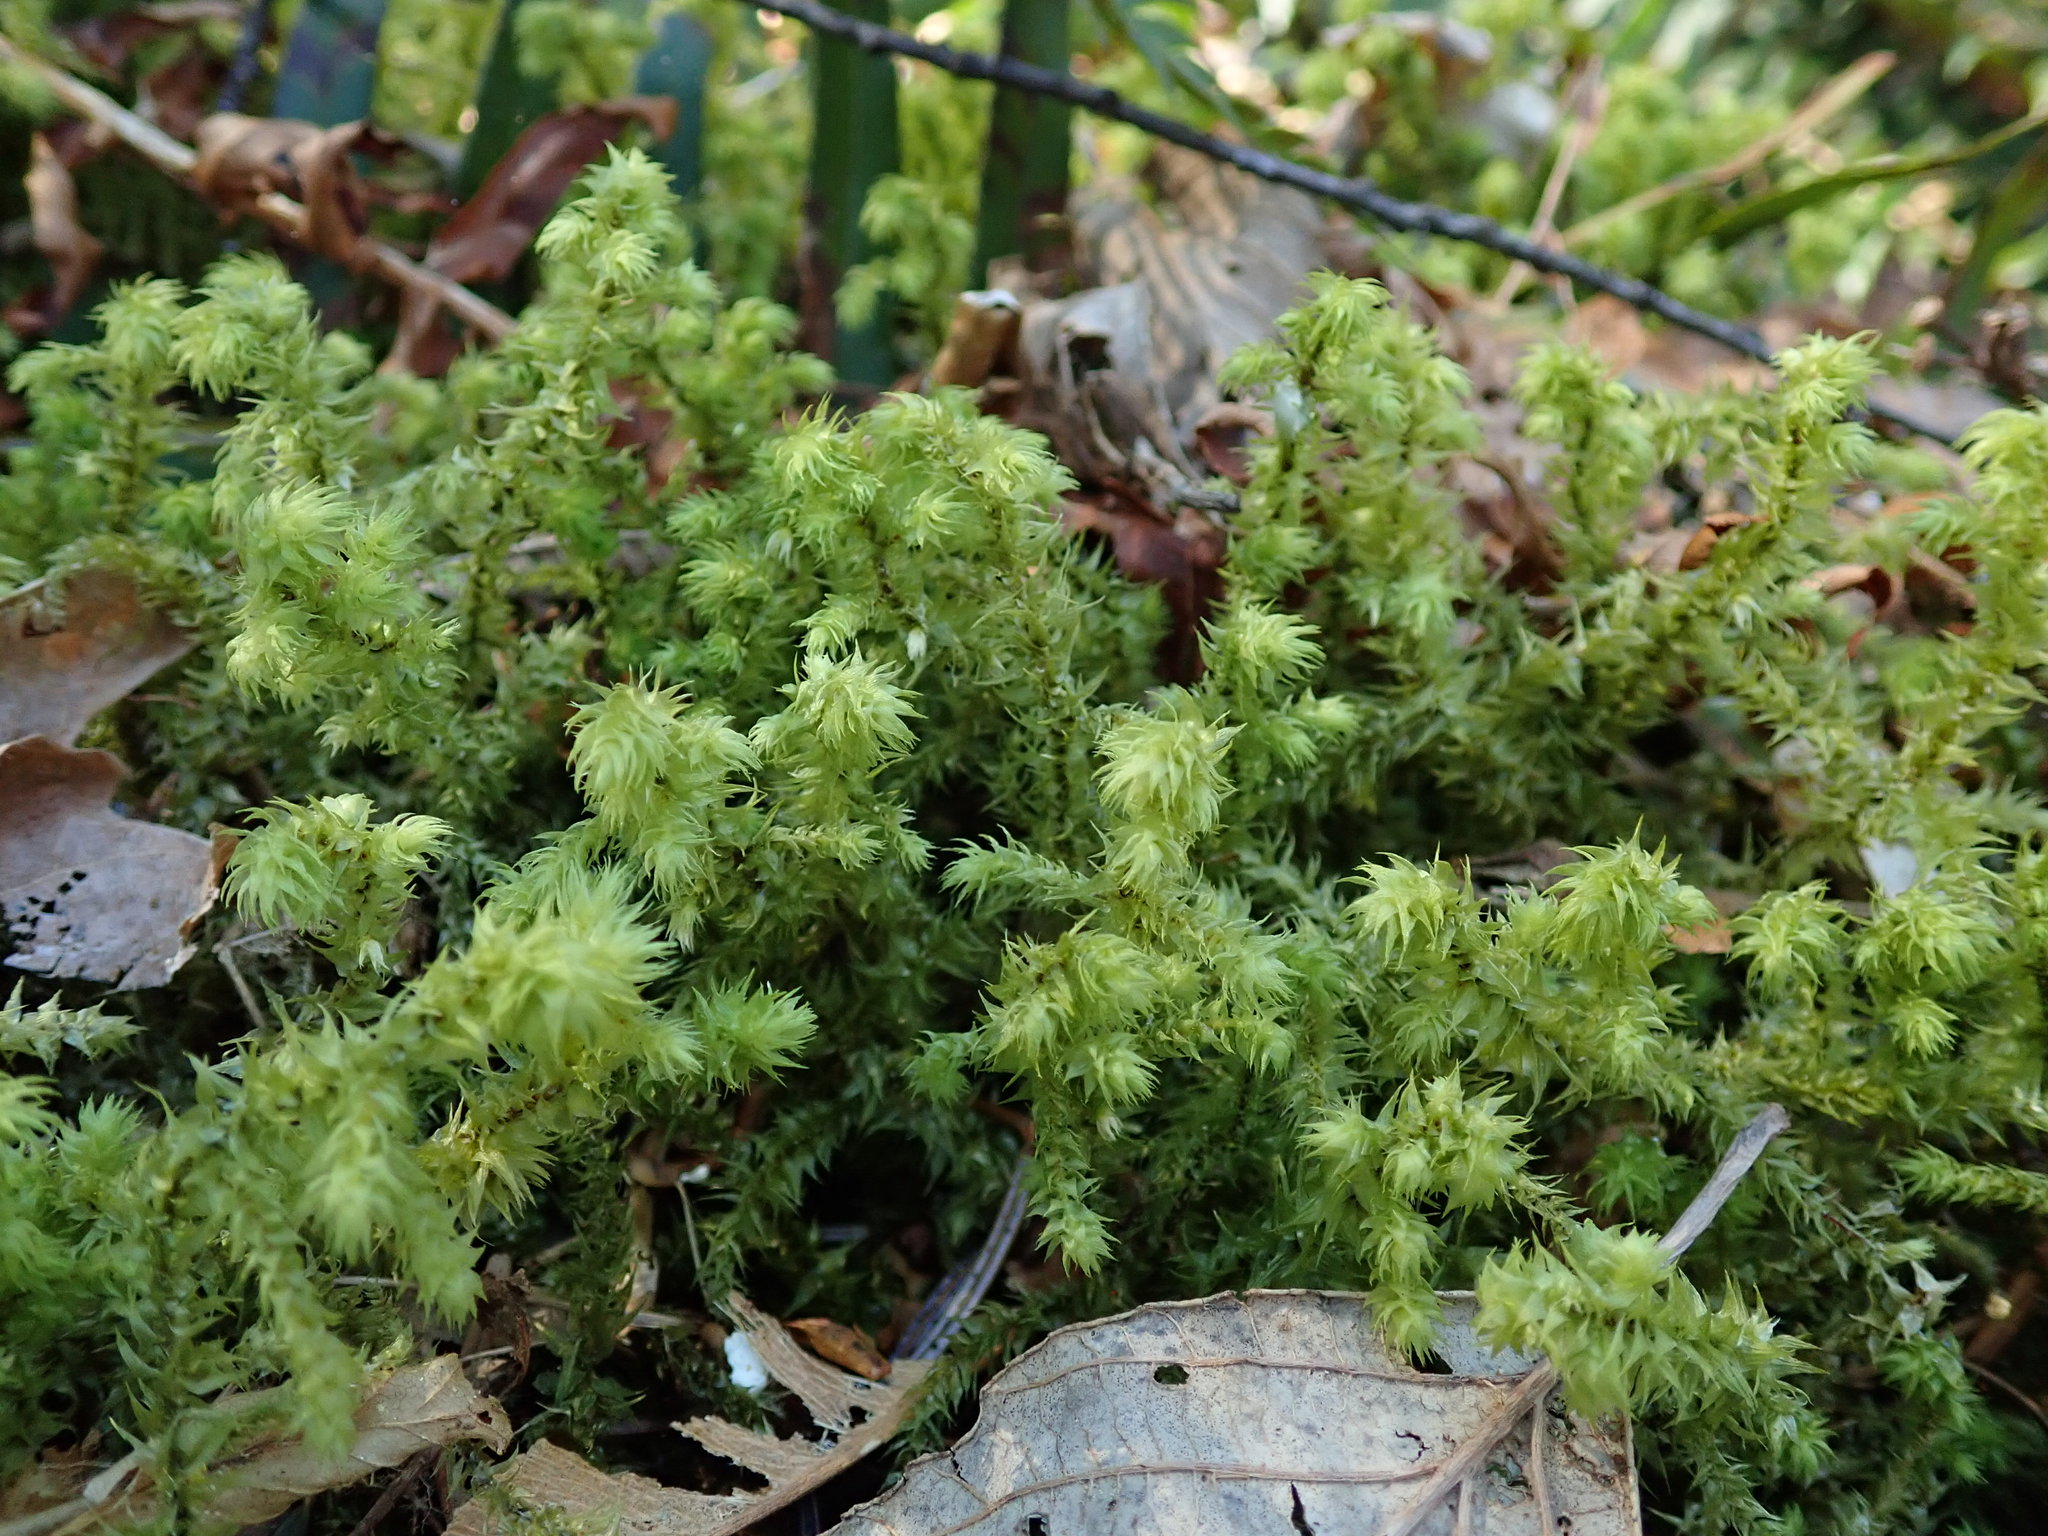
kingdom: Plantae
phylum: Bryophyta
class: Bryopsida
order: Hypnales
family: Hylocomiaceae
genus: Hylocomiadelphus
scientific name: Hylocomiadelphus triquetrus
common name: Rough goose neck moss
